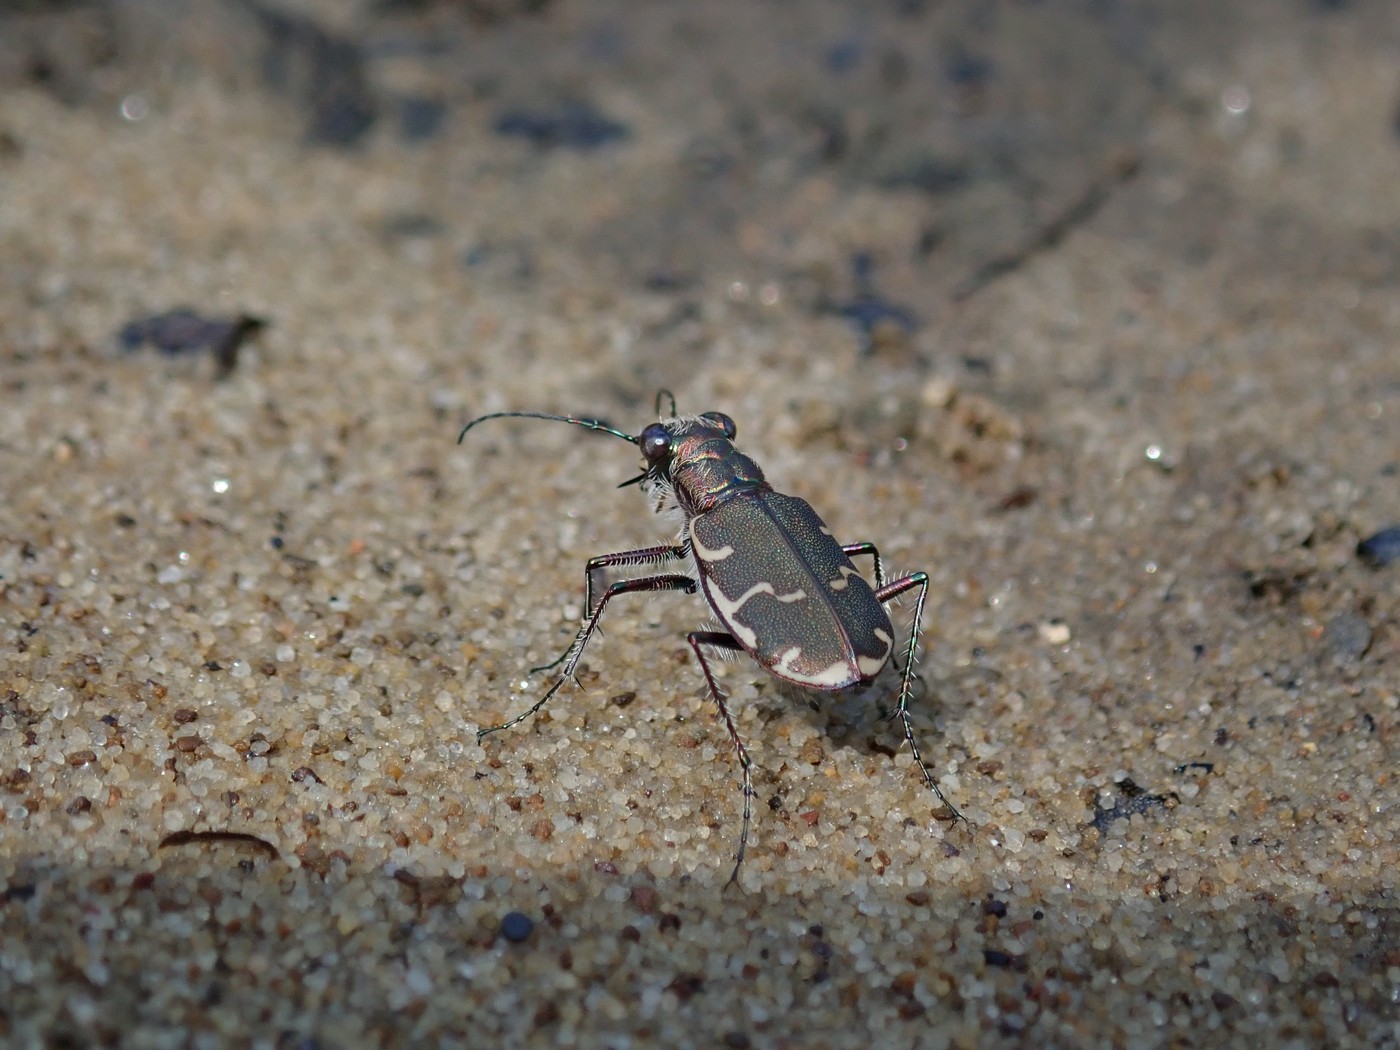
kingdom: Animalia
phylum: Arthropoda
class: Insecta
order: Coleoptera
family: Carabidae
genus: Cicindela
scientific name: Cicindela repanda
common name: Bronzed tiger beetle
